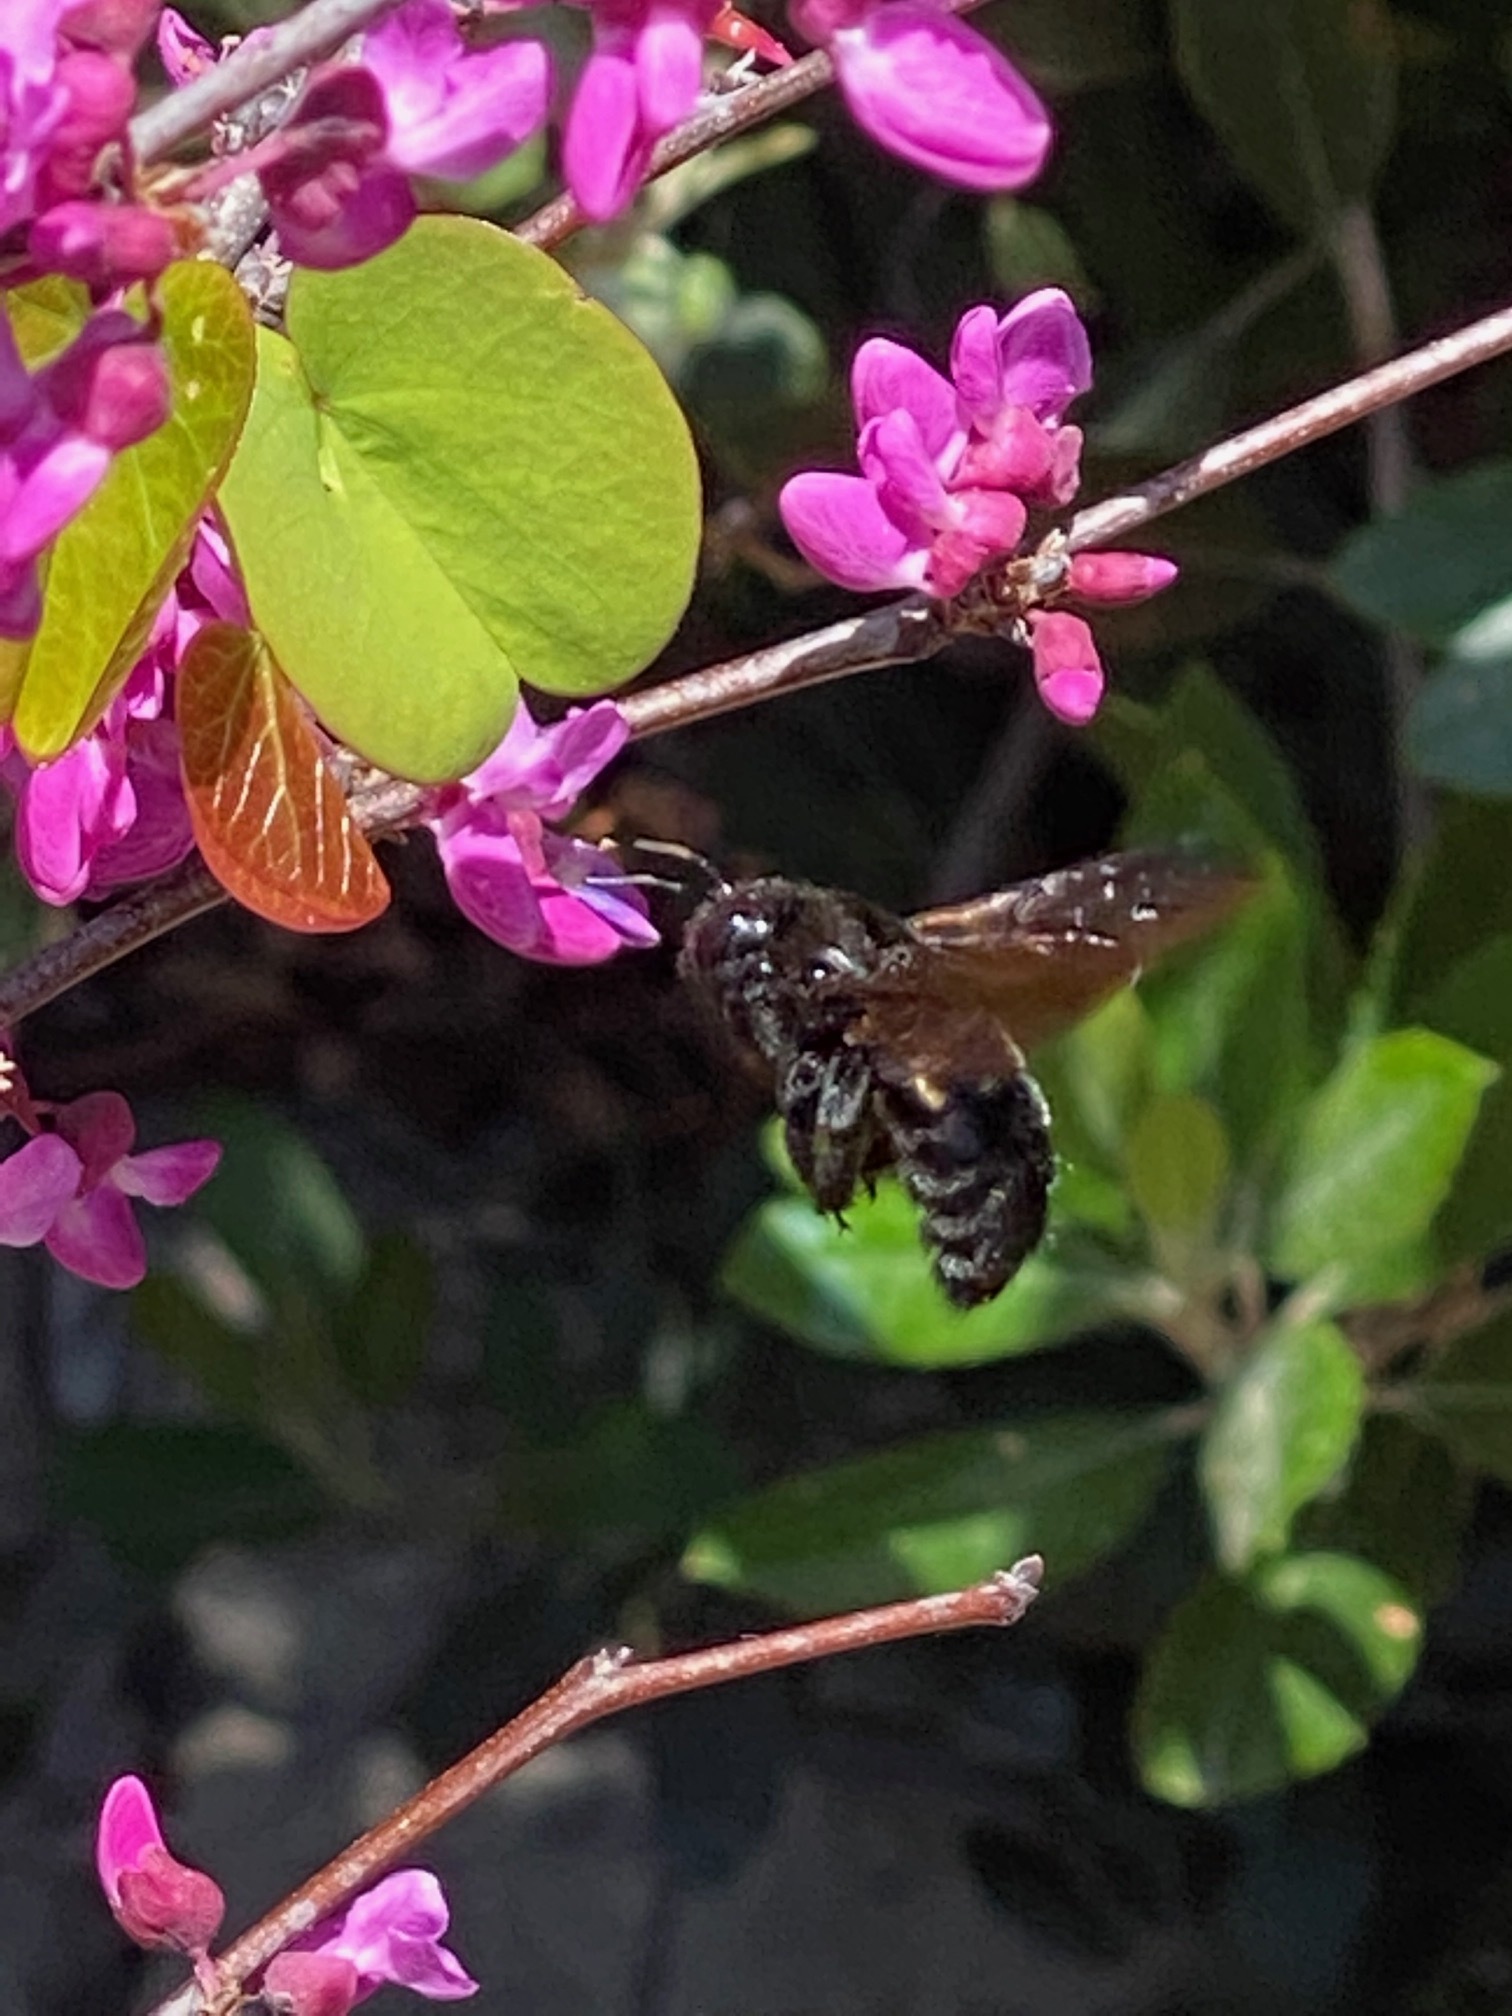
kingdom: Animalia
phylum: Arthropoda
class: Insecta
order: Hymenoptera
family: Apidae
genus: Xylocopa
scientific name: Xylocopa sonorina
